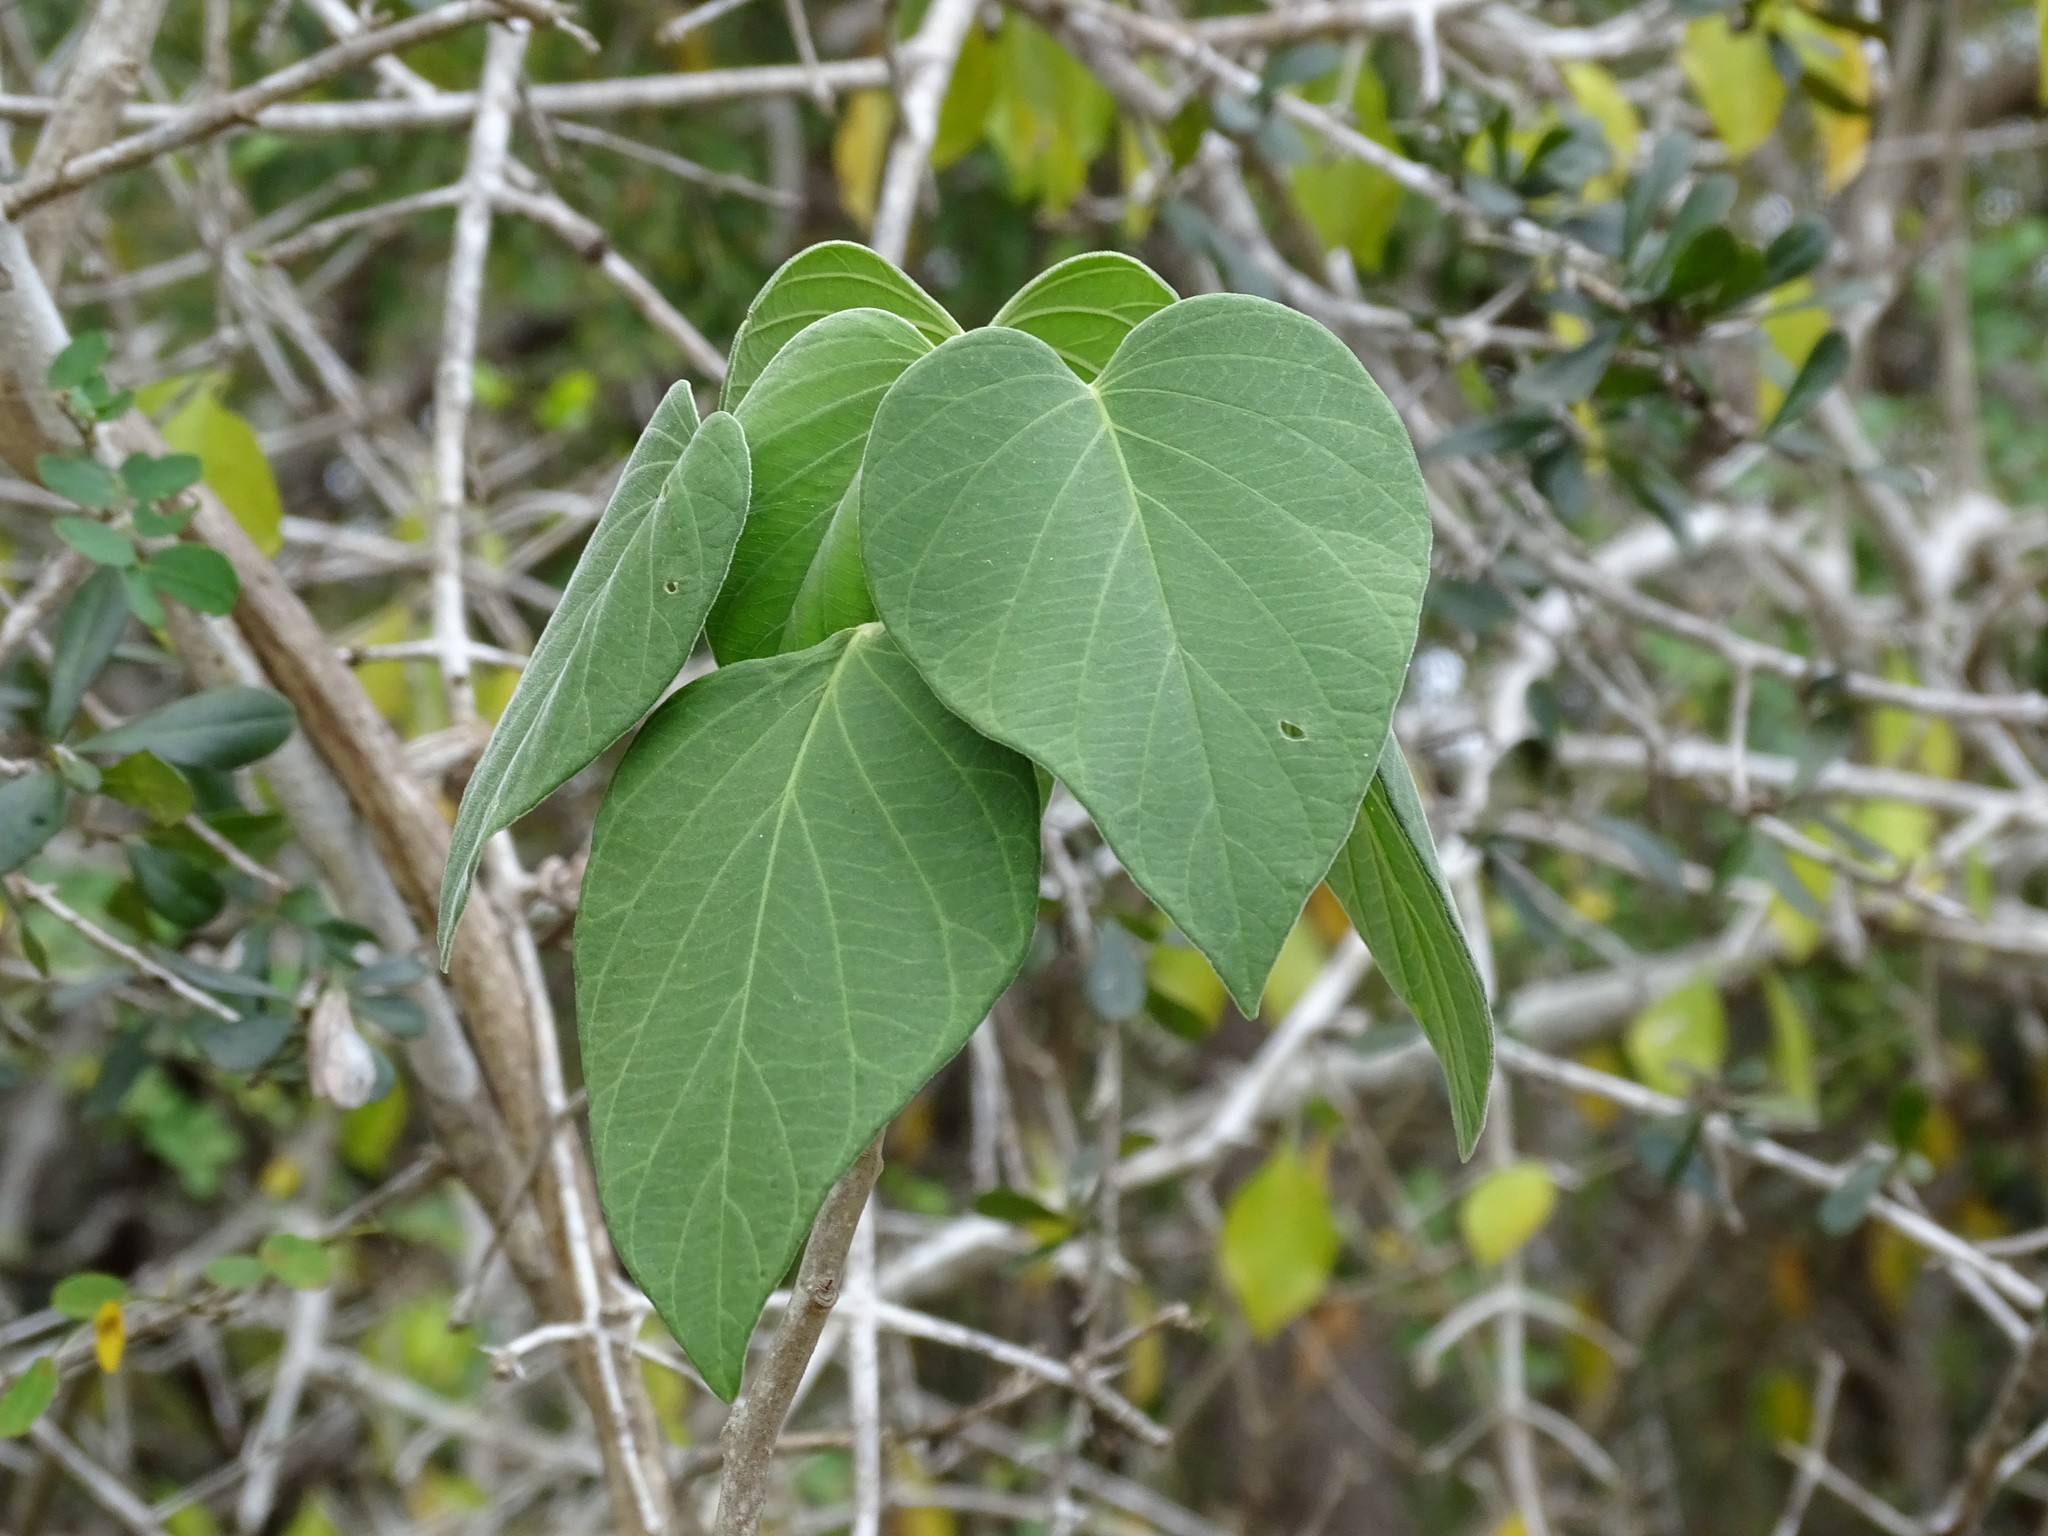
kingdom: Plantae
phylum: Tracheophyta
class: Magnoliopsida
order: Solanales
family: Convolvulaceae
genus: Ipomoea
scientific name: Ipomoea carnea
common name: Morning-glory
